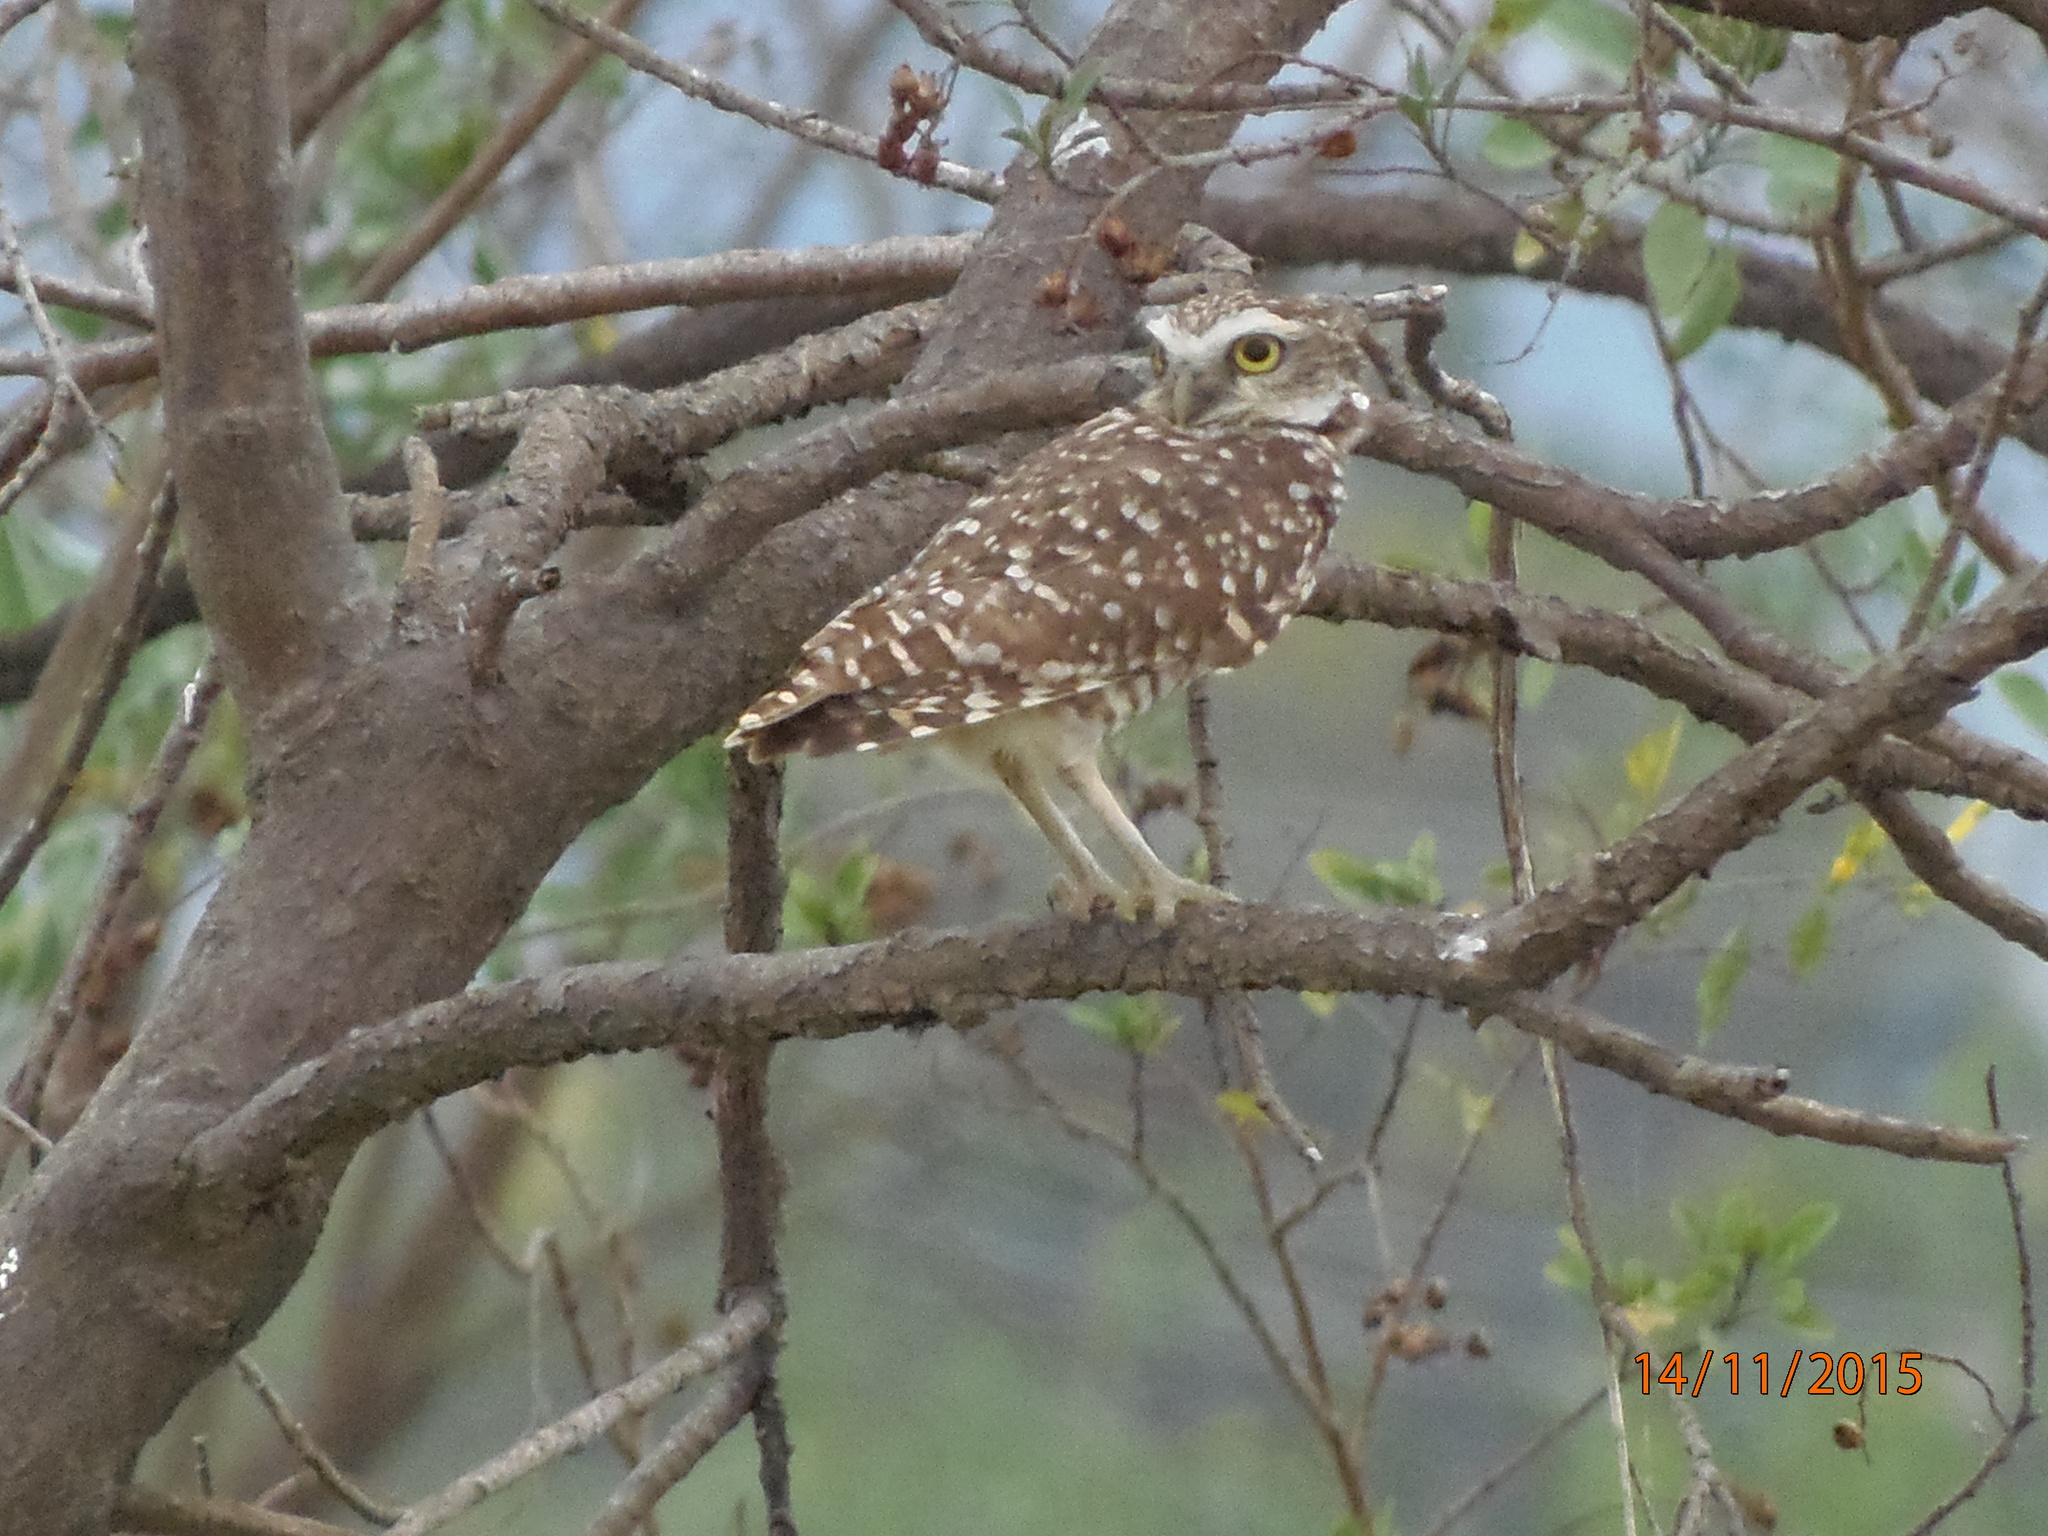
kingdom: Animalia
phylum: Chordata
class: Aves
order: Strigiformes
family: Strigidae
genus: Athene
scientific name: Athene cunicularia
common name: Burrowing owl
